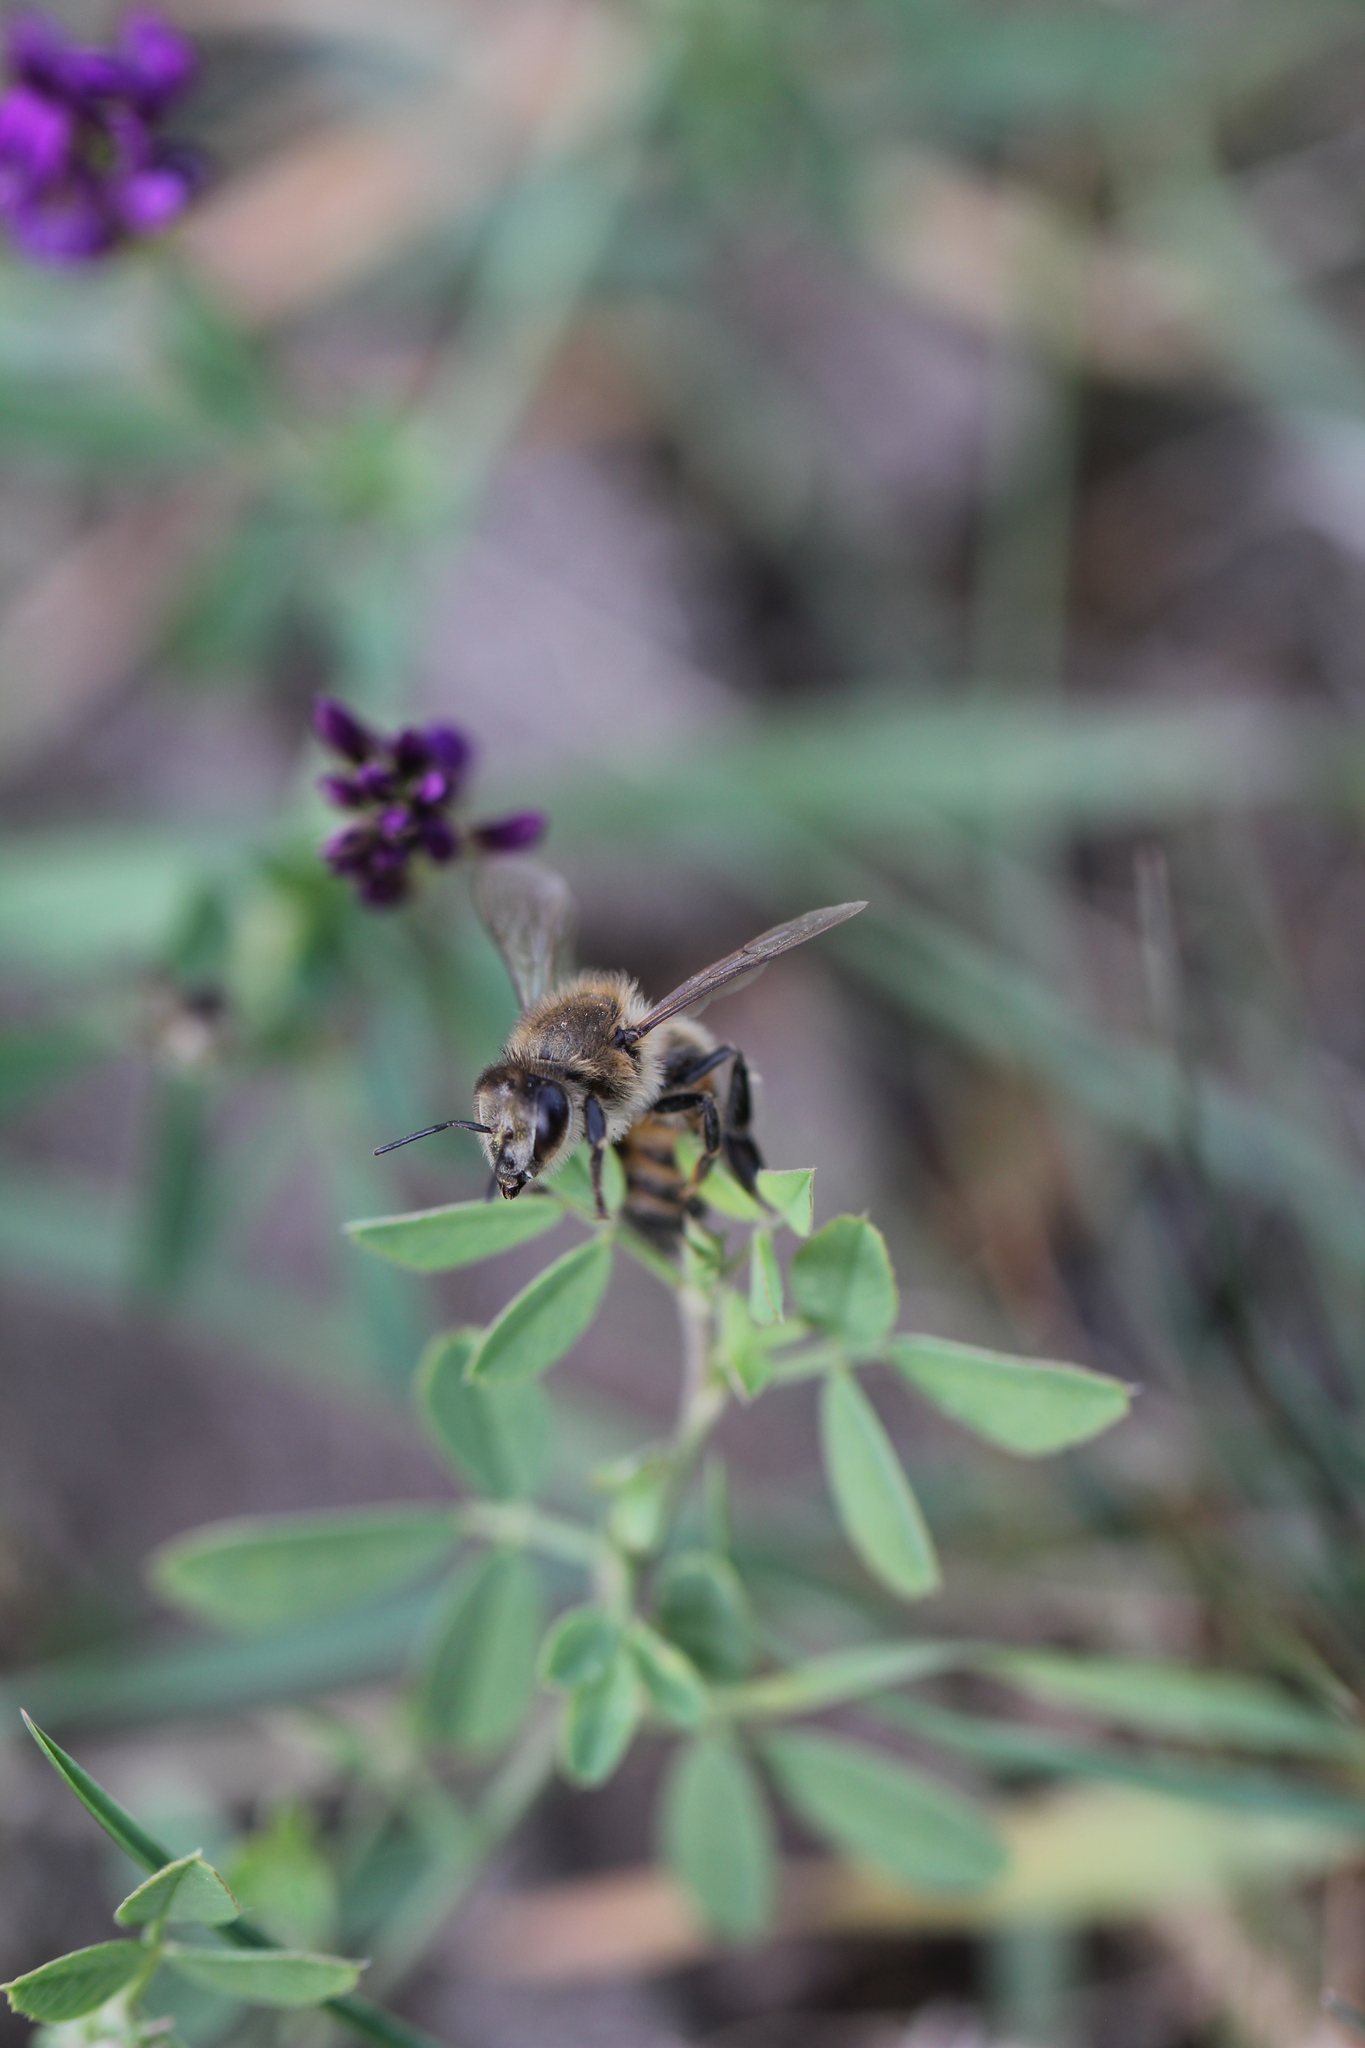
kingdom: Animalia
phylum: Arthropoda
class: Insecta
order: Hymenoptera
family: Apidae
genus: Apis
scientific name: Apis mellifera
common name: Honey bee
